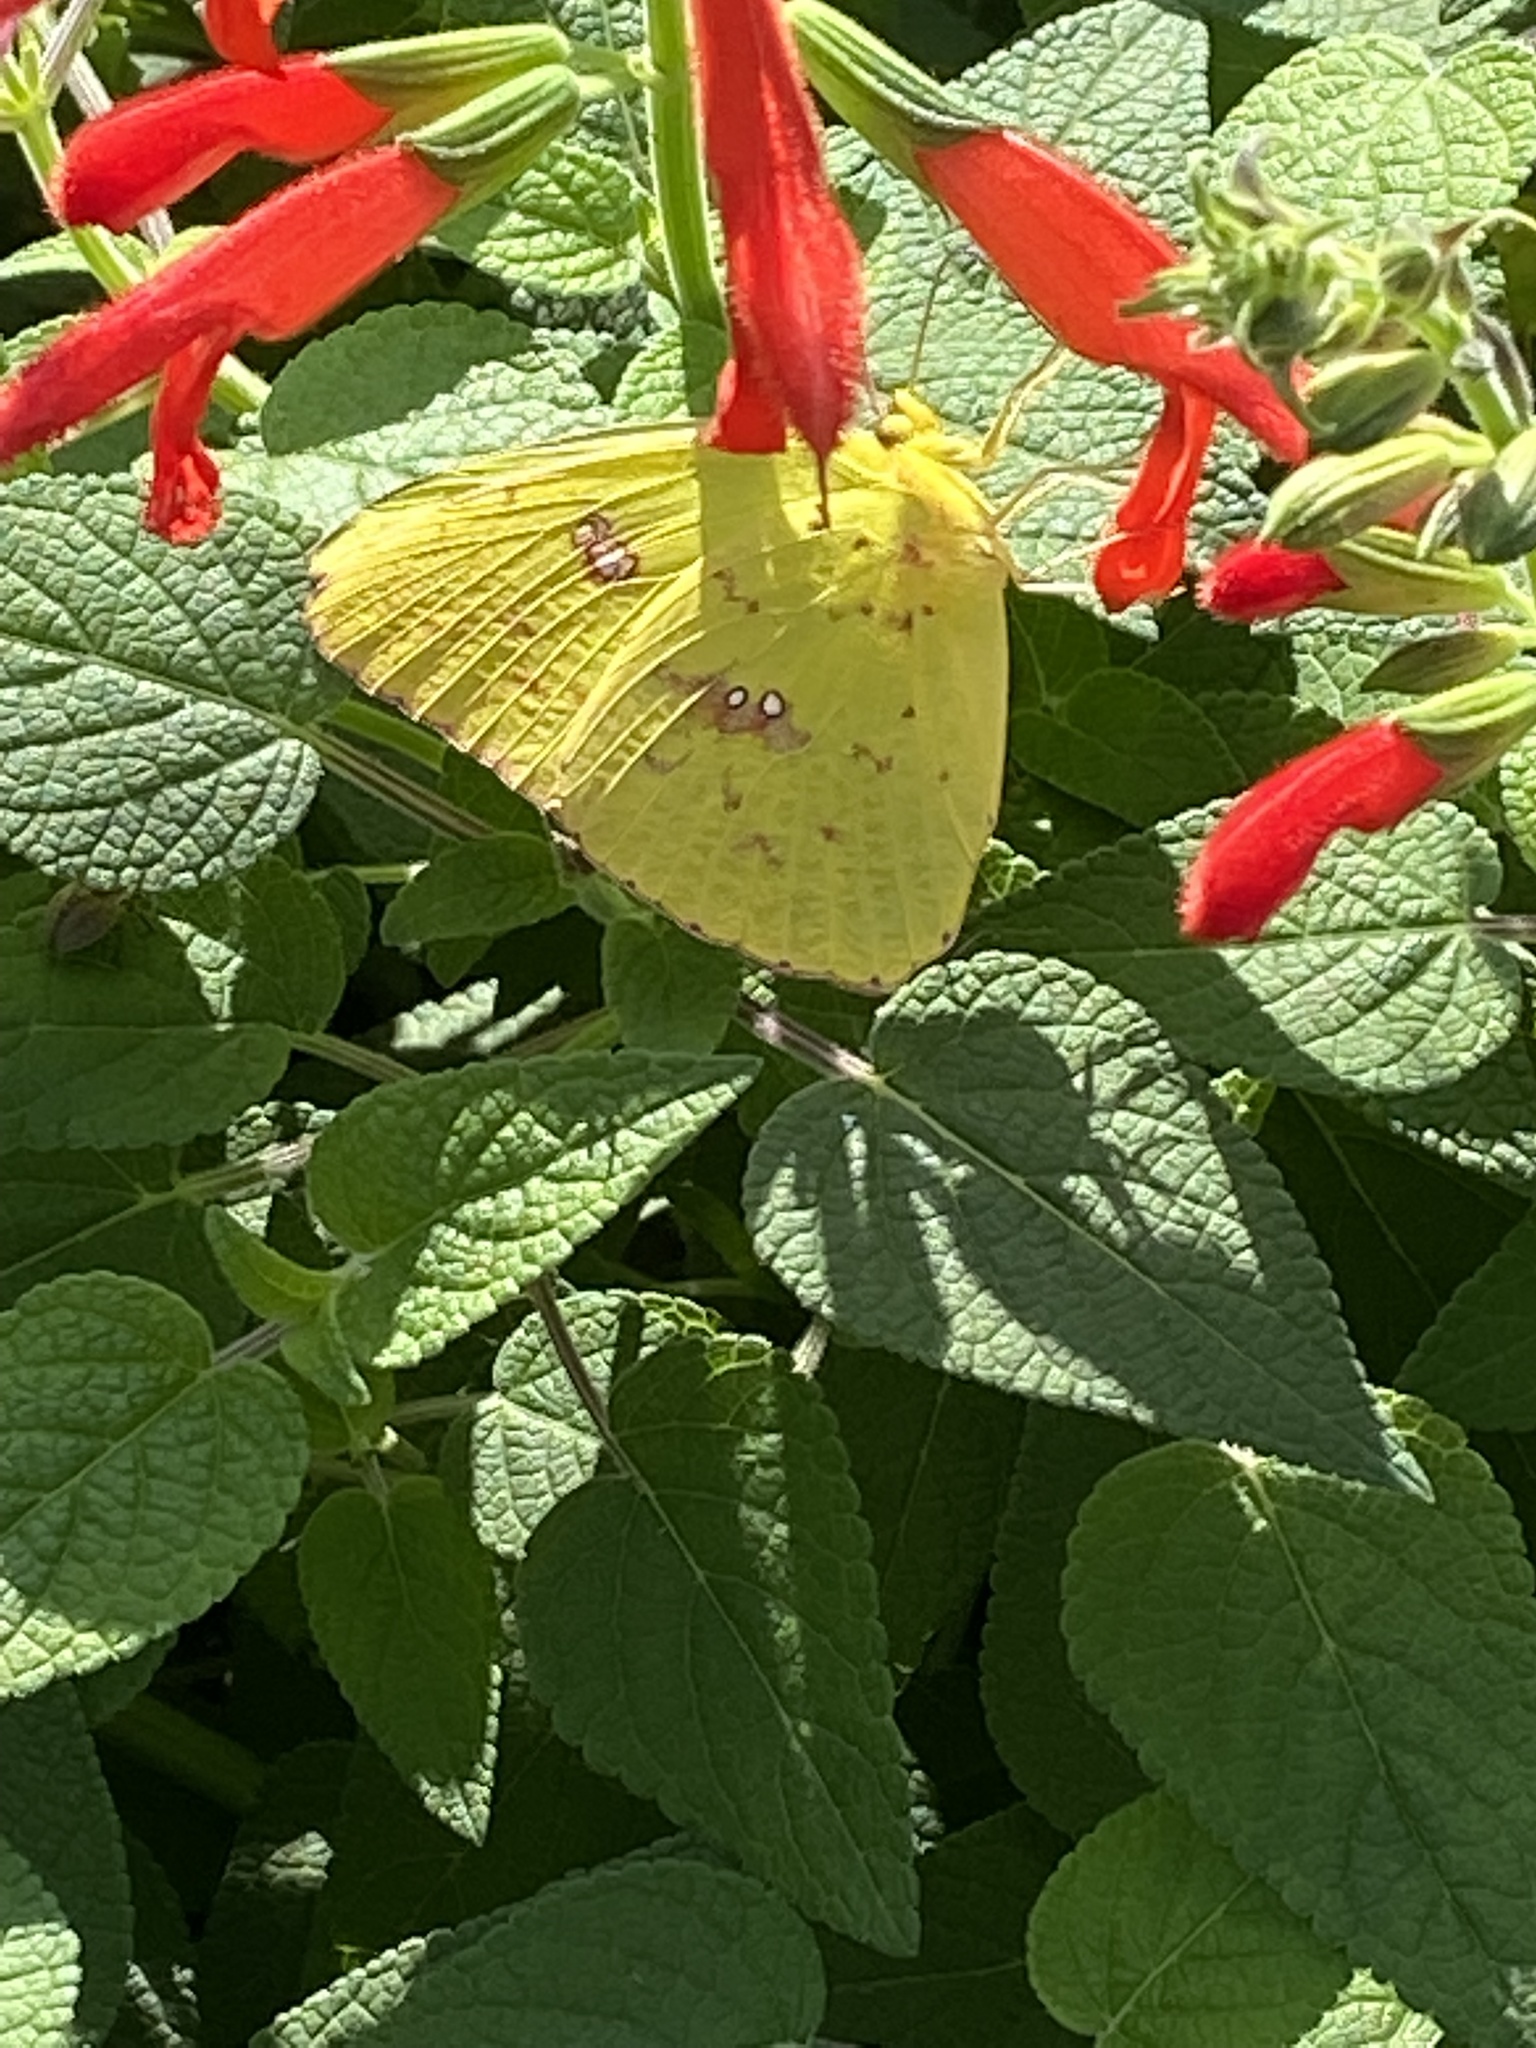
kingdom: Animalia
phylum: Arthropoda
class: Insecta
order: Lepidoptera
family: Pieridae
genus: Phoebis
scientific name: Phoebis sennae
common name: Cloudless sulphur
